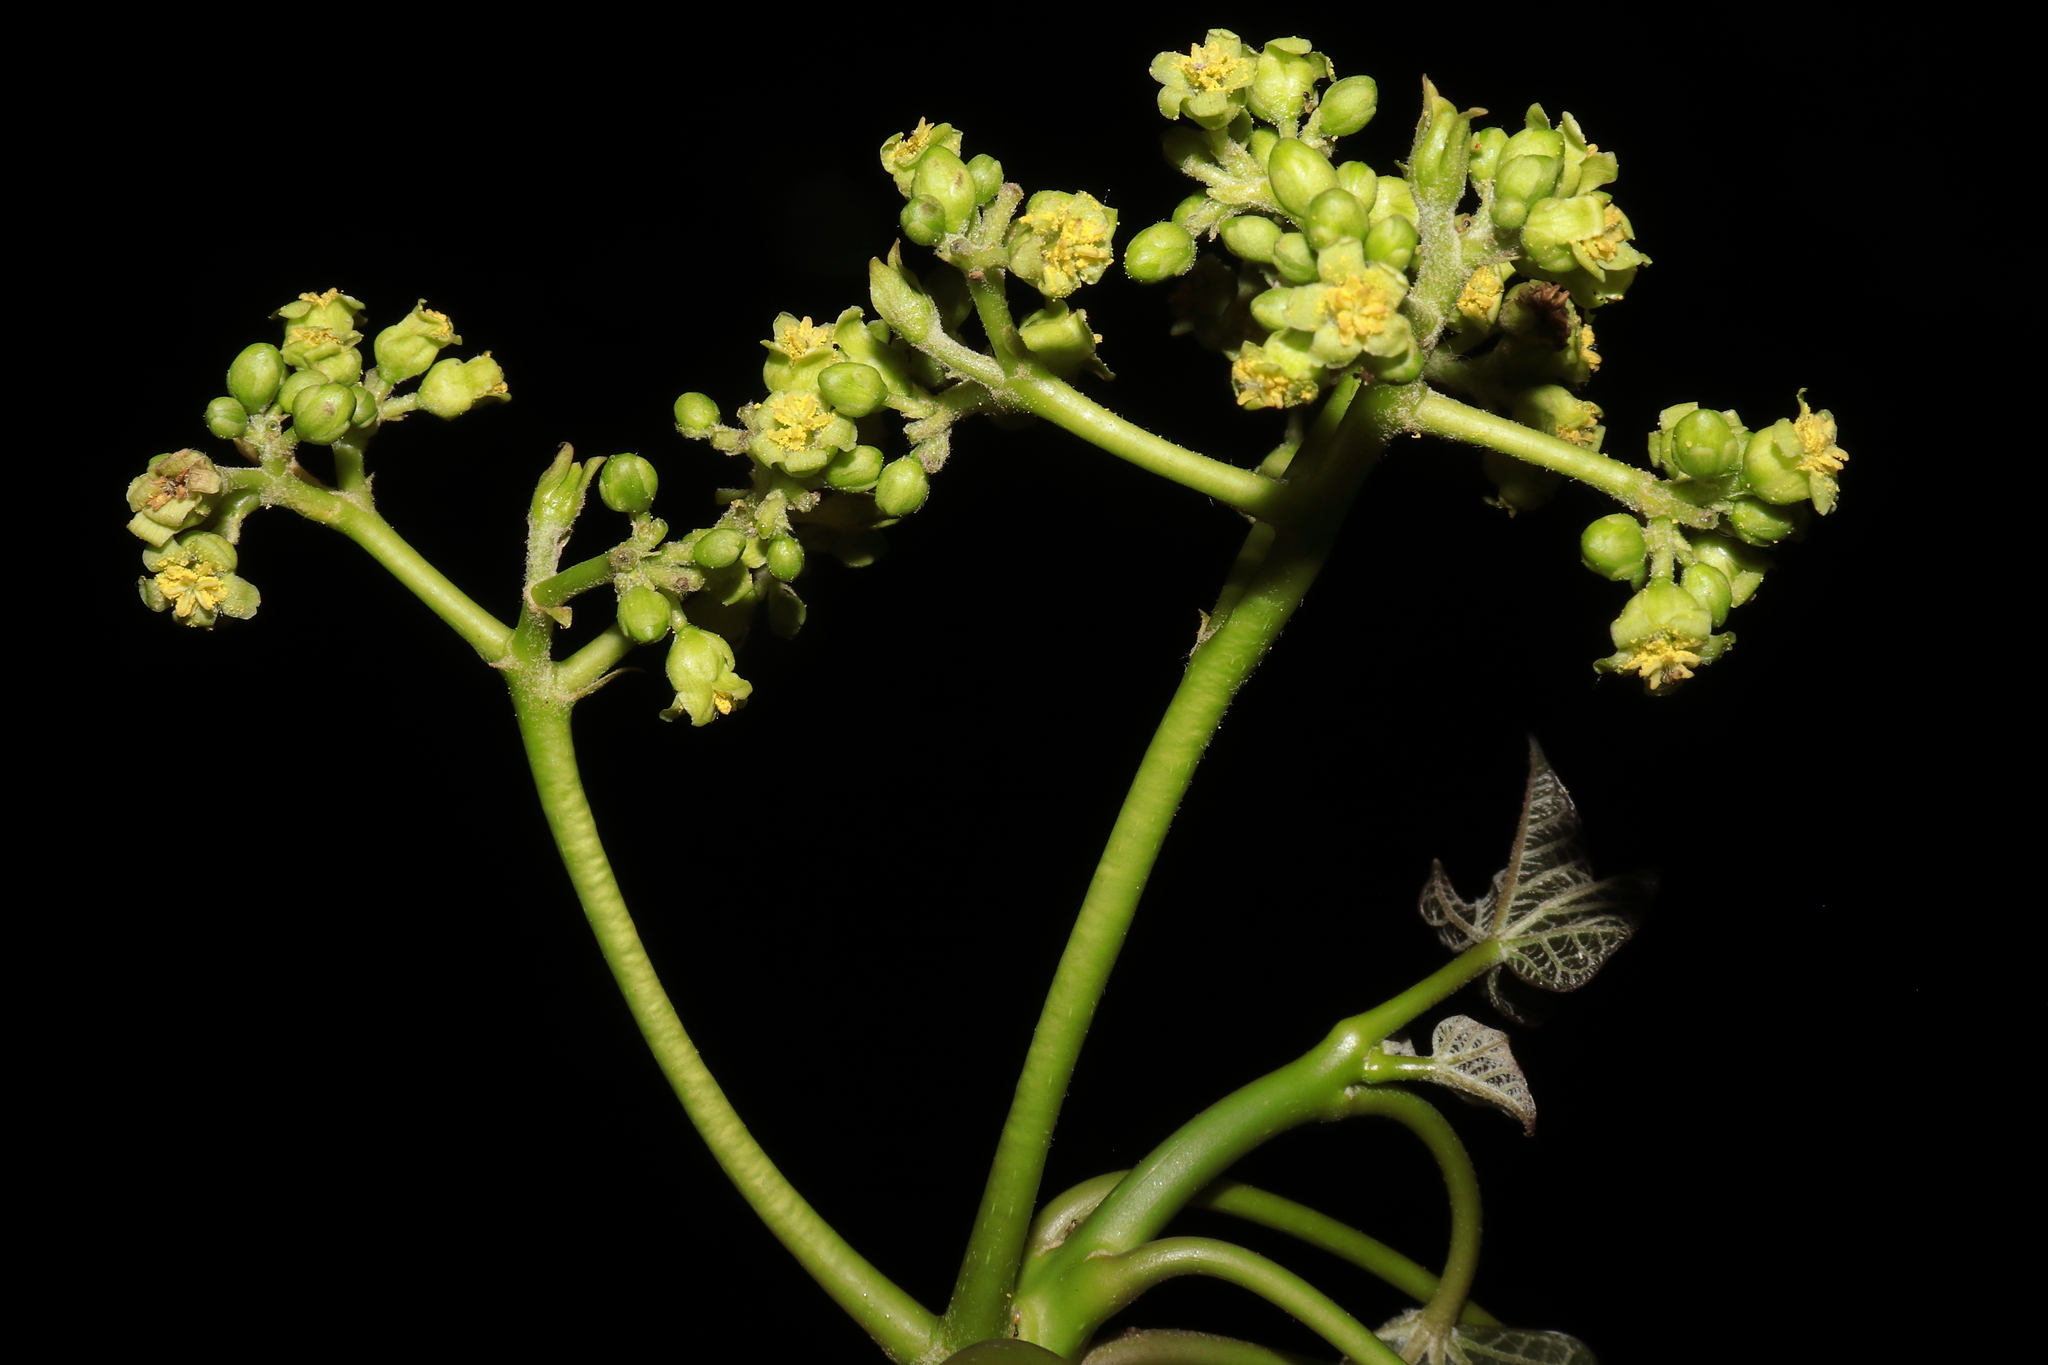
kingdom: Plantae
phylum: Tracheophyta
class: Magnoliopsida
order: Malpighiales
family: Euphorbiaceae
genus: Jatropha
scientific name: Jatropha curcas
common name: Barbados nut
